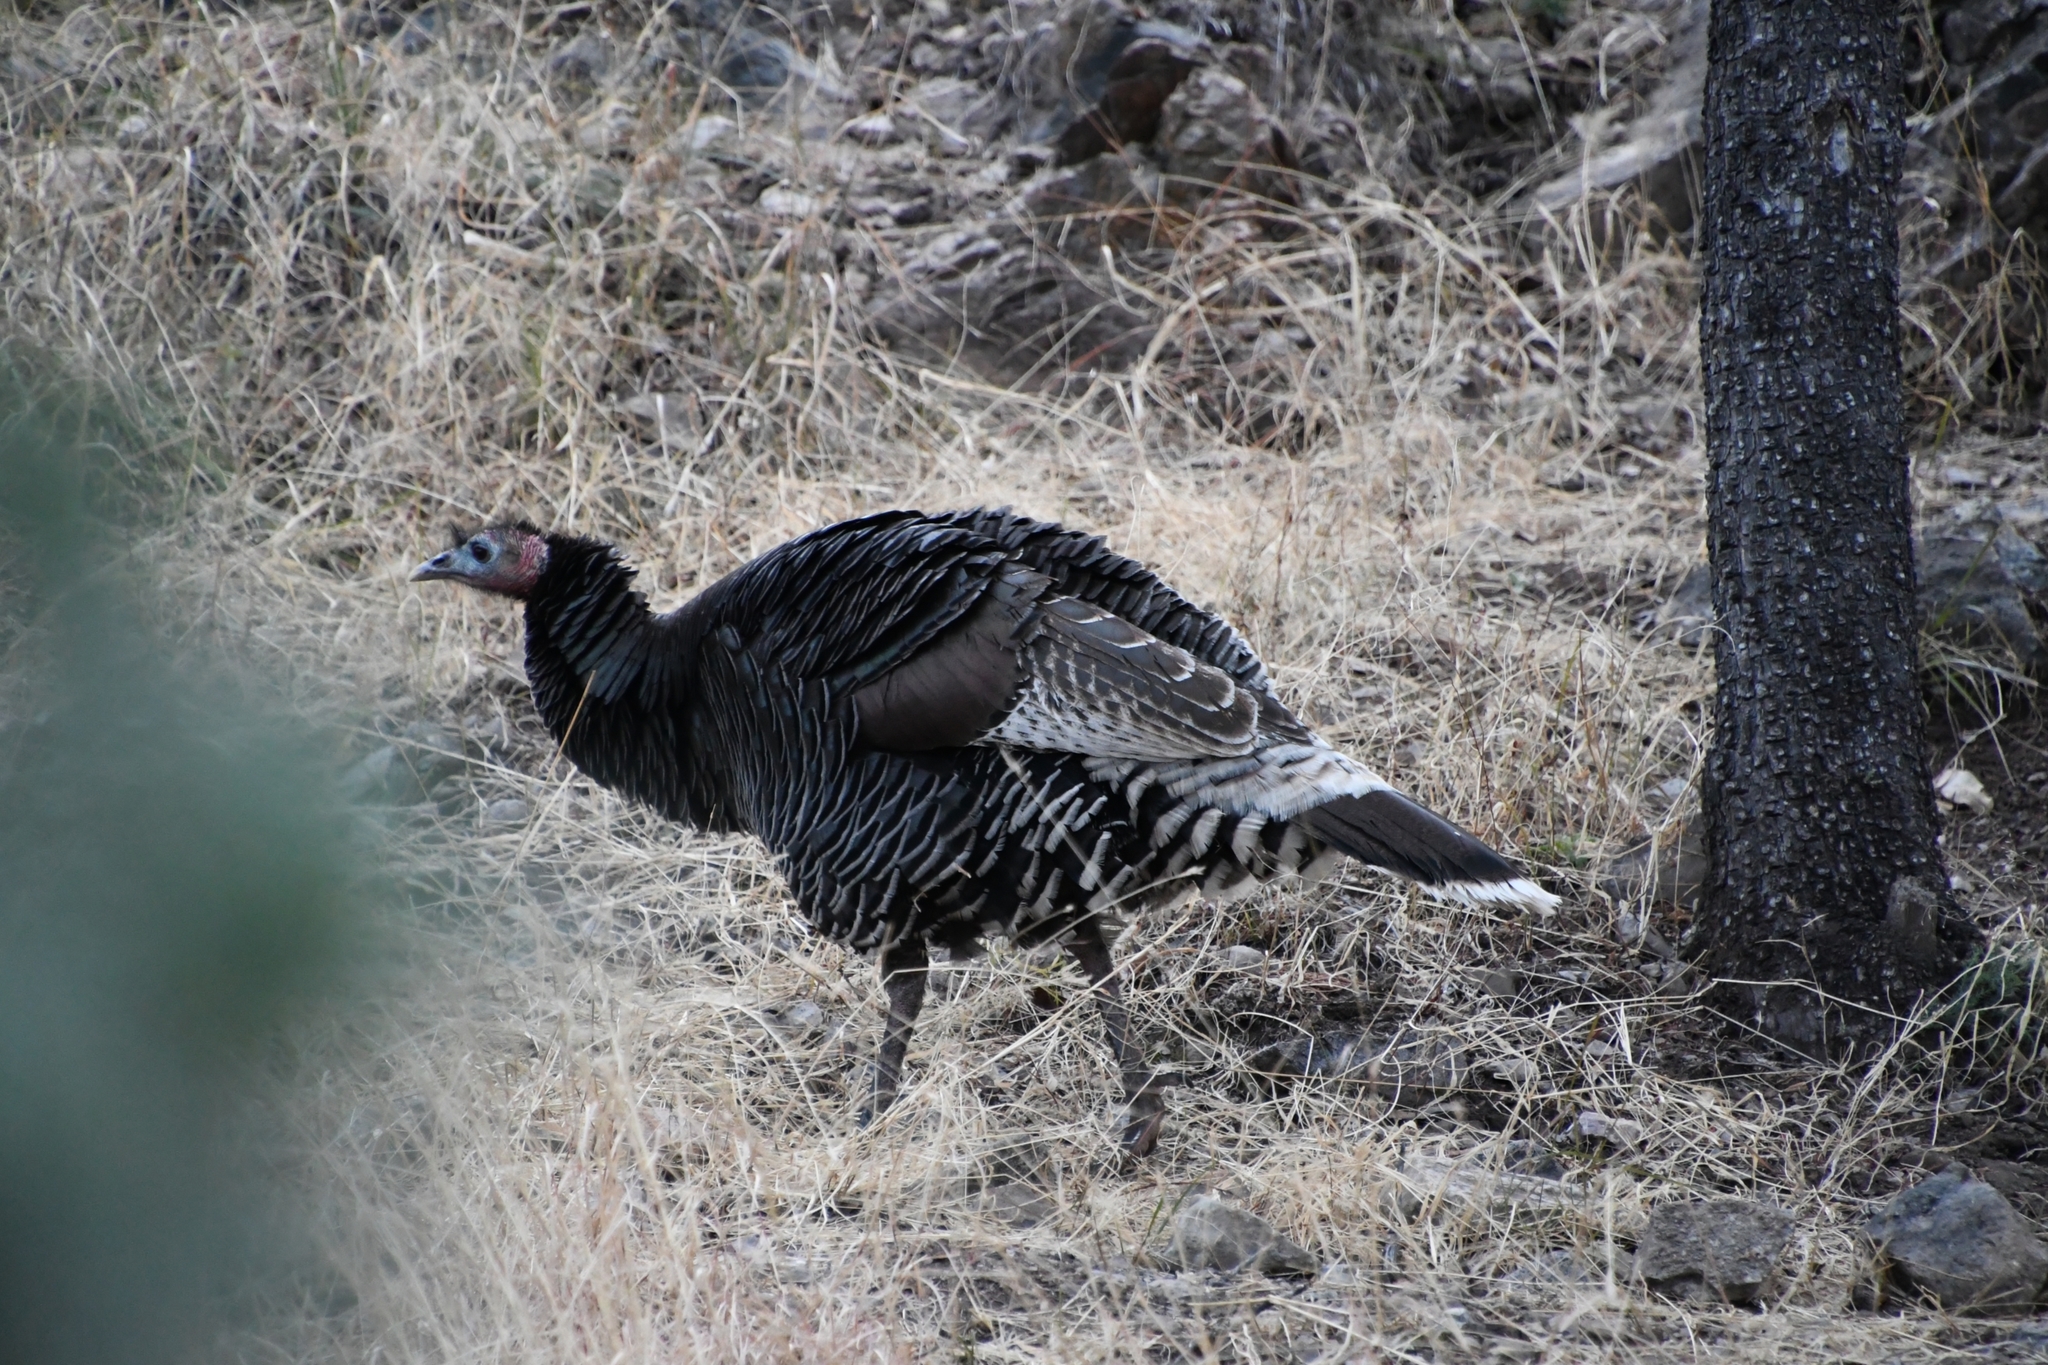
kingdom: Animalia
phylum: Chordata
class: Aves
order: Galliformes
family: Phasianidae
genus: Meleagris
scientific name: Meleagris gallopavo
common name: Wild turkey
